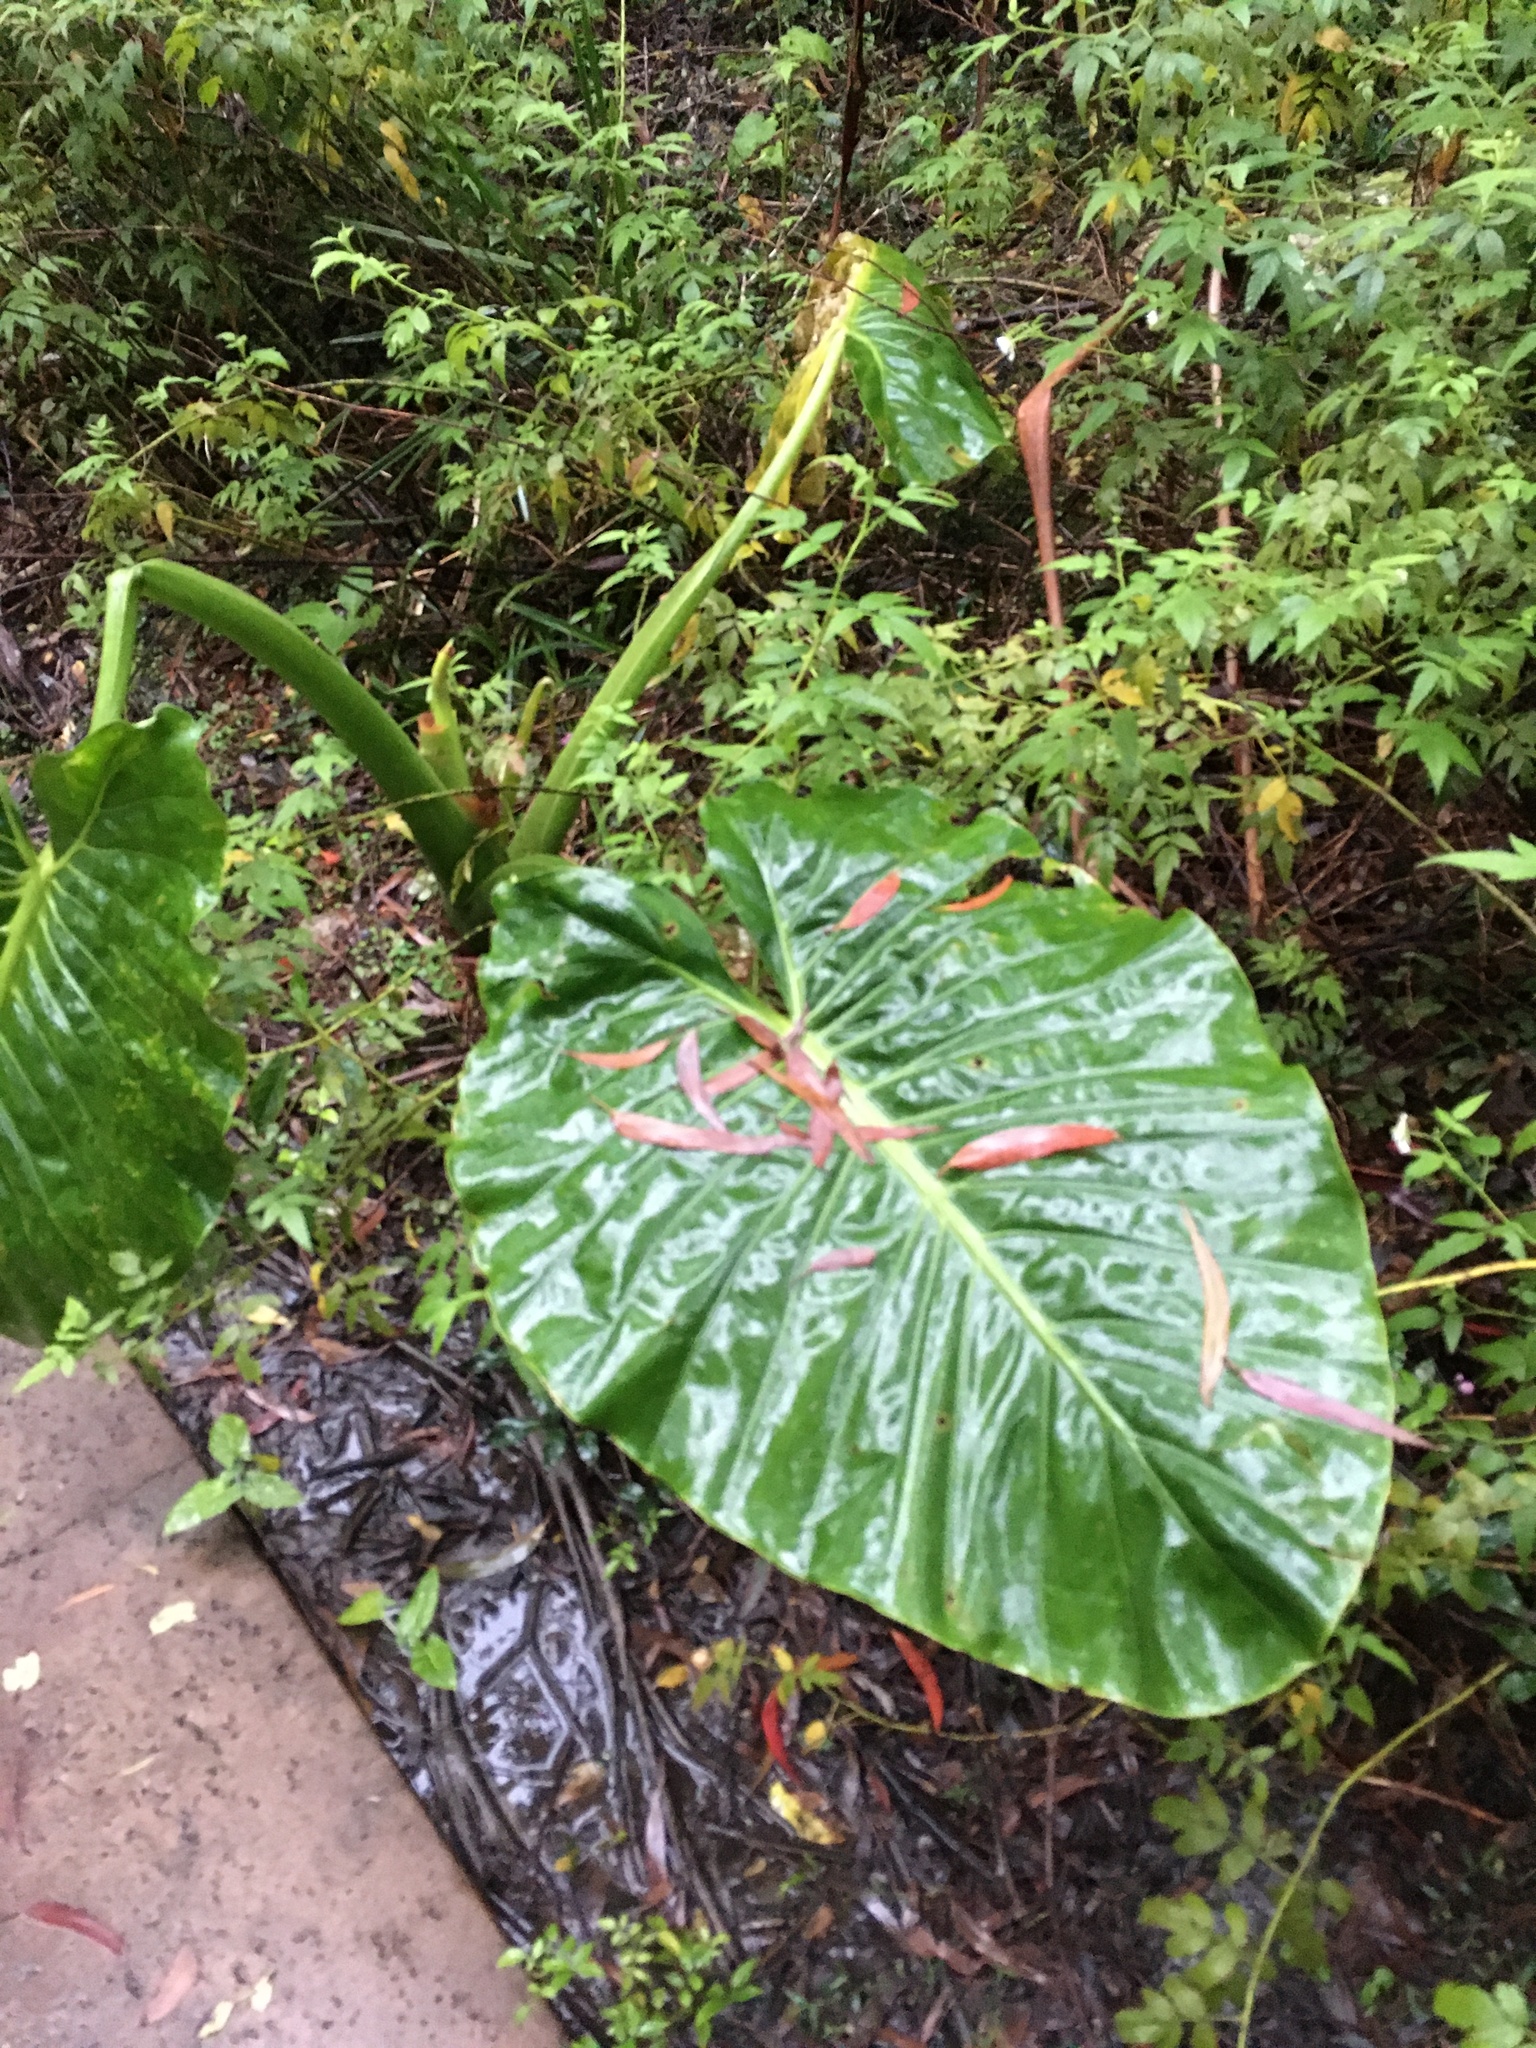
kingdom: Plantae
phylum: Tracheophyta
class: Liliopsida
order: Alismatales
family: Araceae
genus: Alocasia
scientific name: Alocasia brisbanensis
